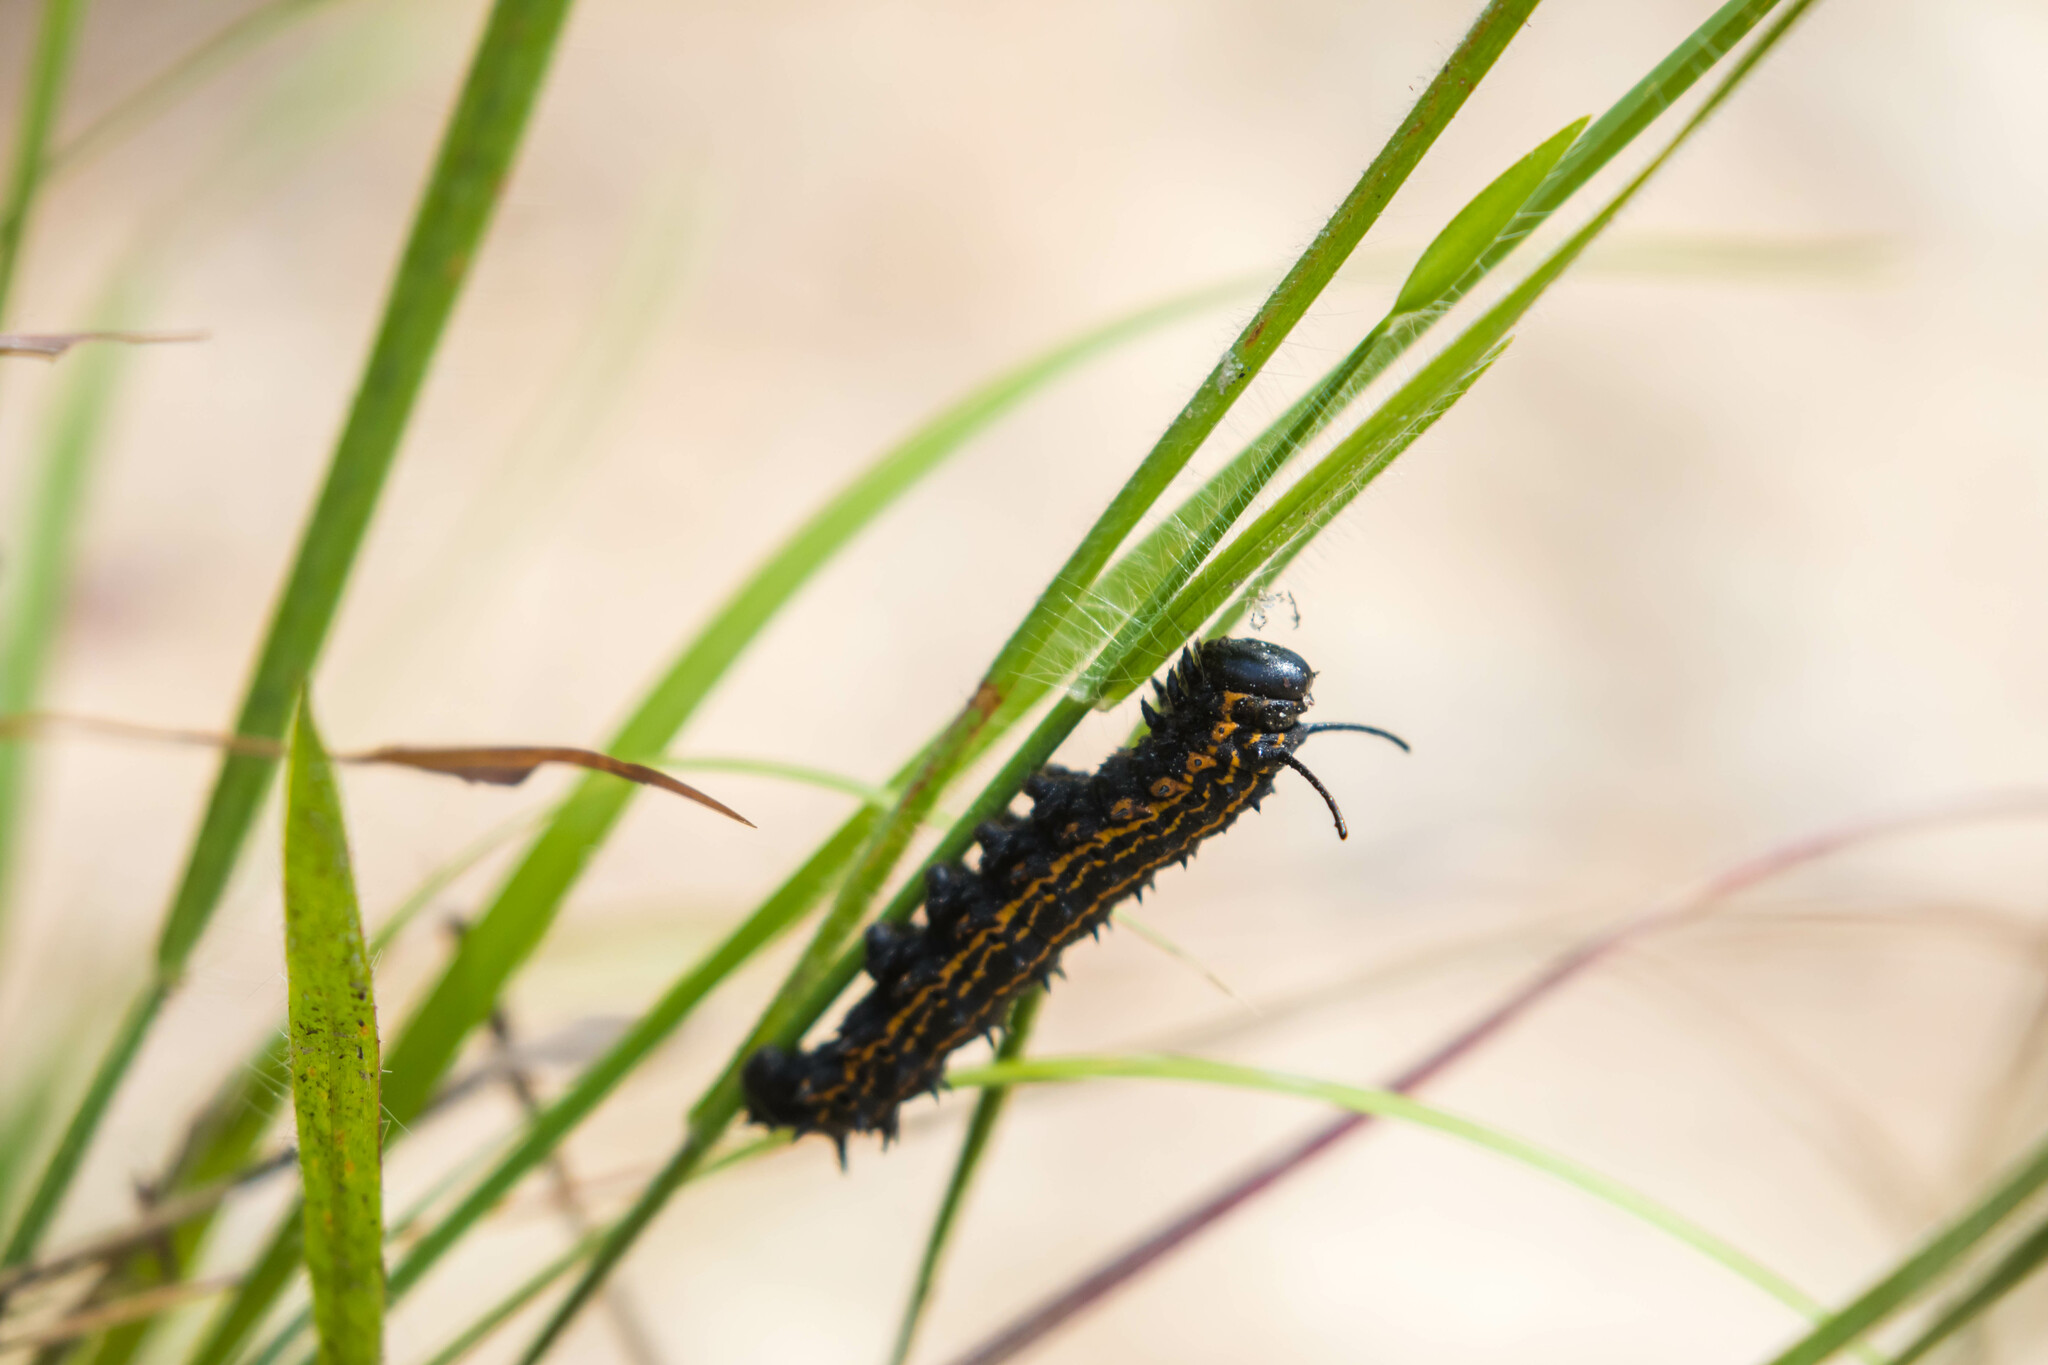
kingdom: Animalia
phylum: Arthropoda
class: Insecta
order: Lepidoptera
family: Saturniidae
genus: Anisota
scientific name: Anisota peigleri
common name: Peigler's oakworm moth
